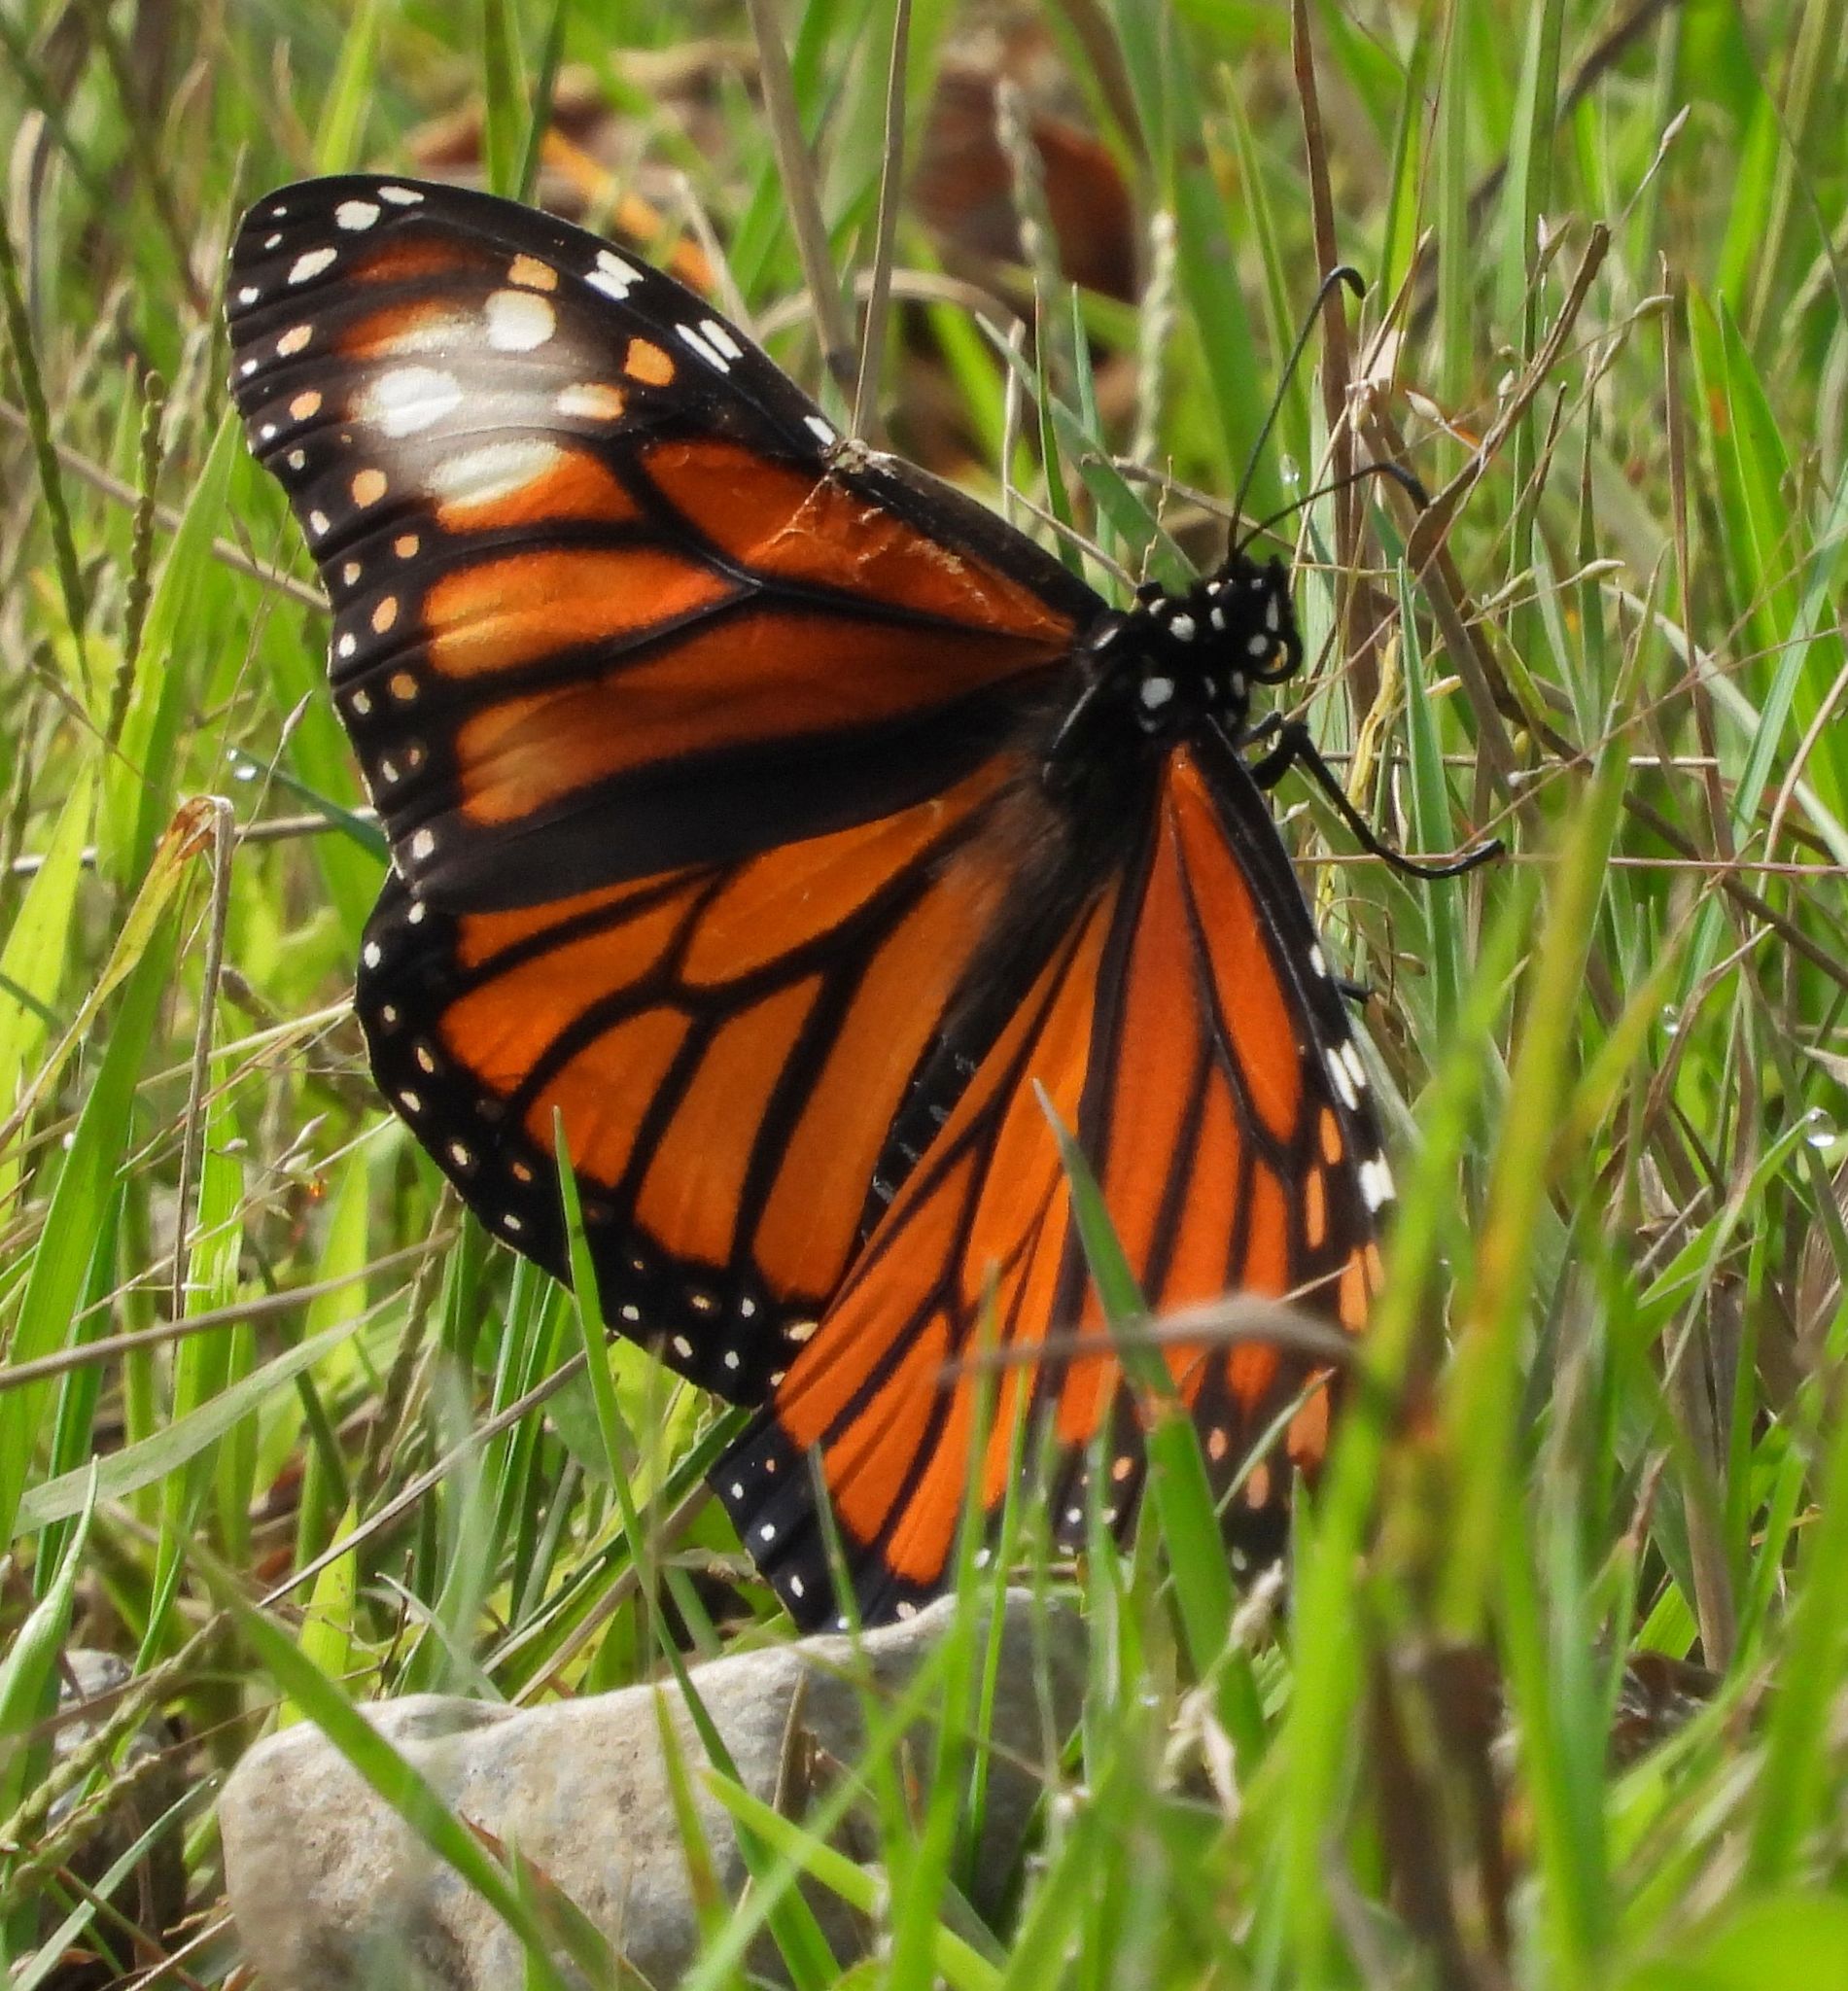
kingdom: Animalia
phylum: Arthropoda
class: Insecta
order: Lepidoptera
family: Nymphalidae
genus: Danaus
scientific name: Danaus plexippus
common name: Monarch
